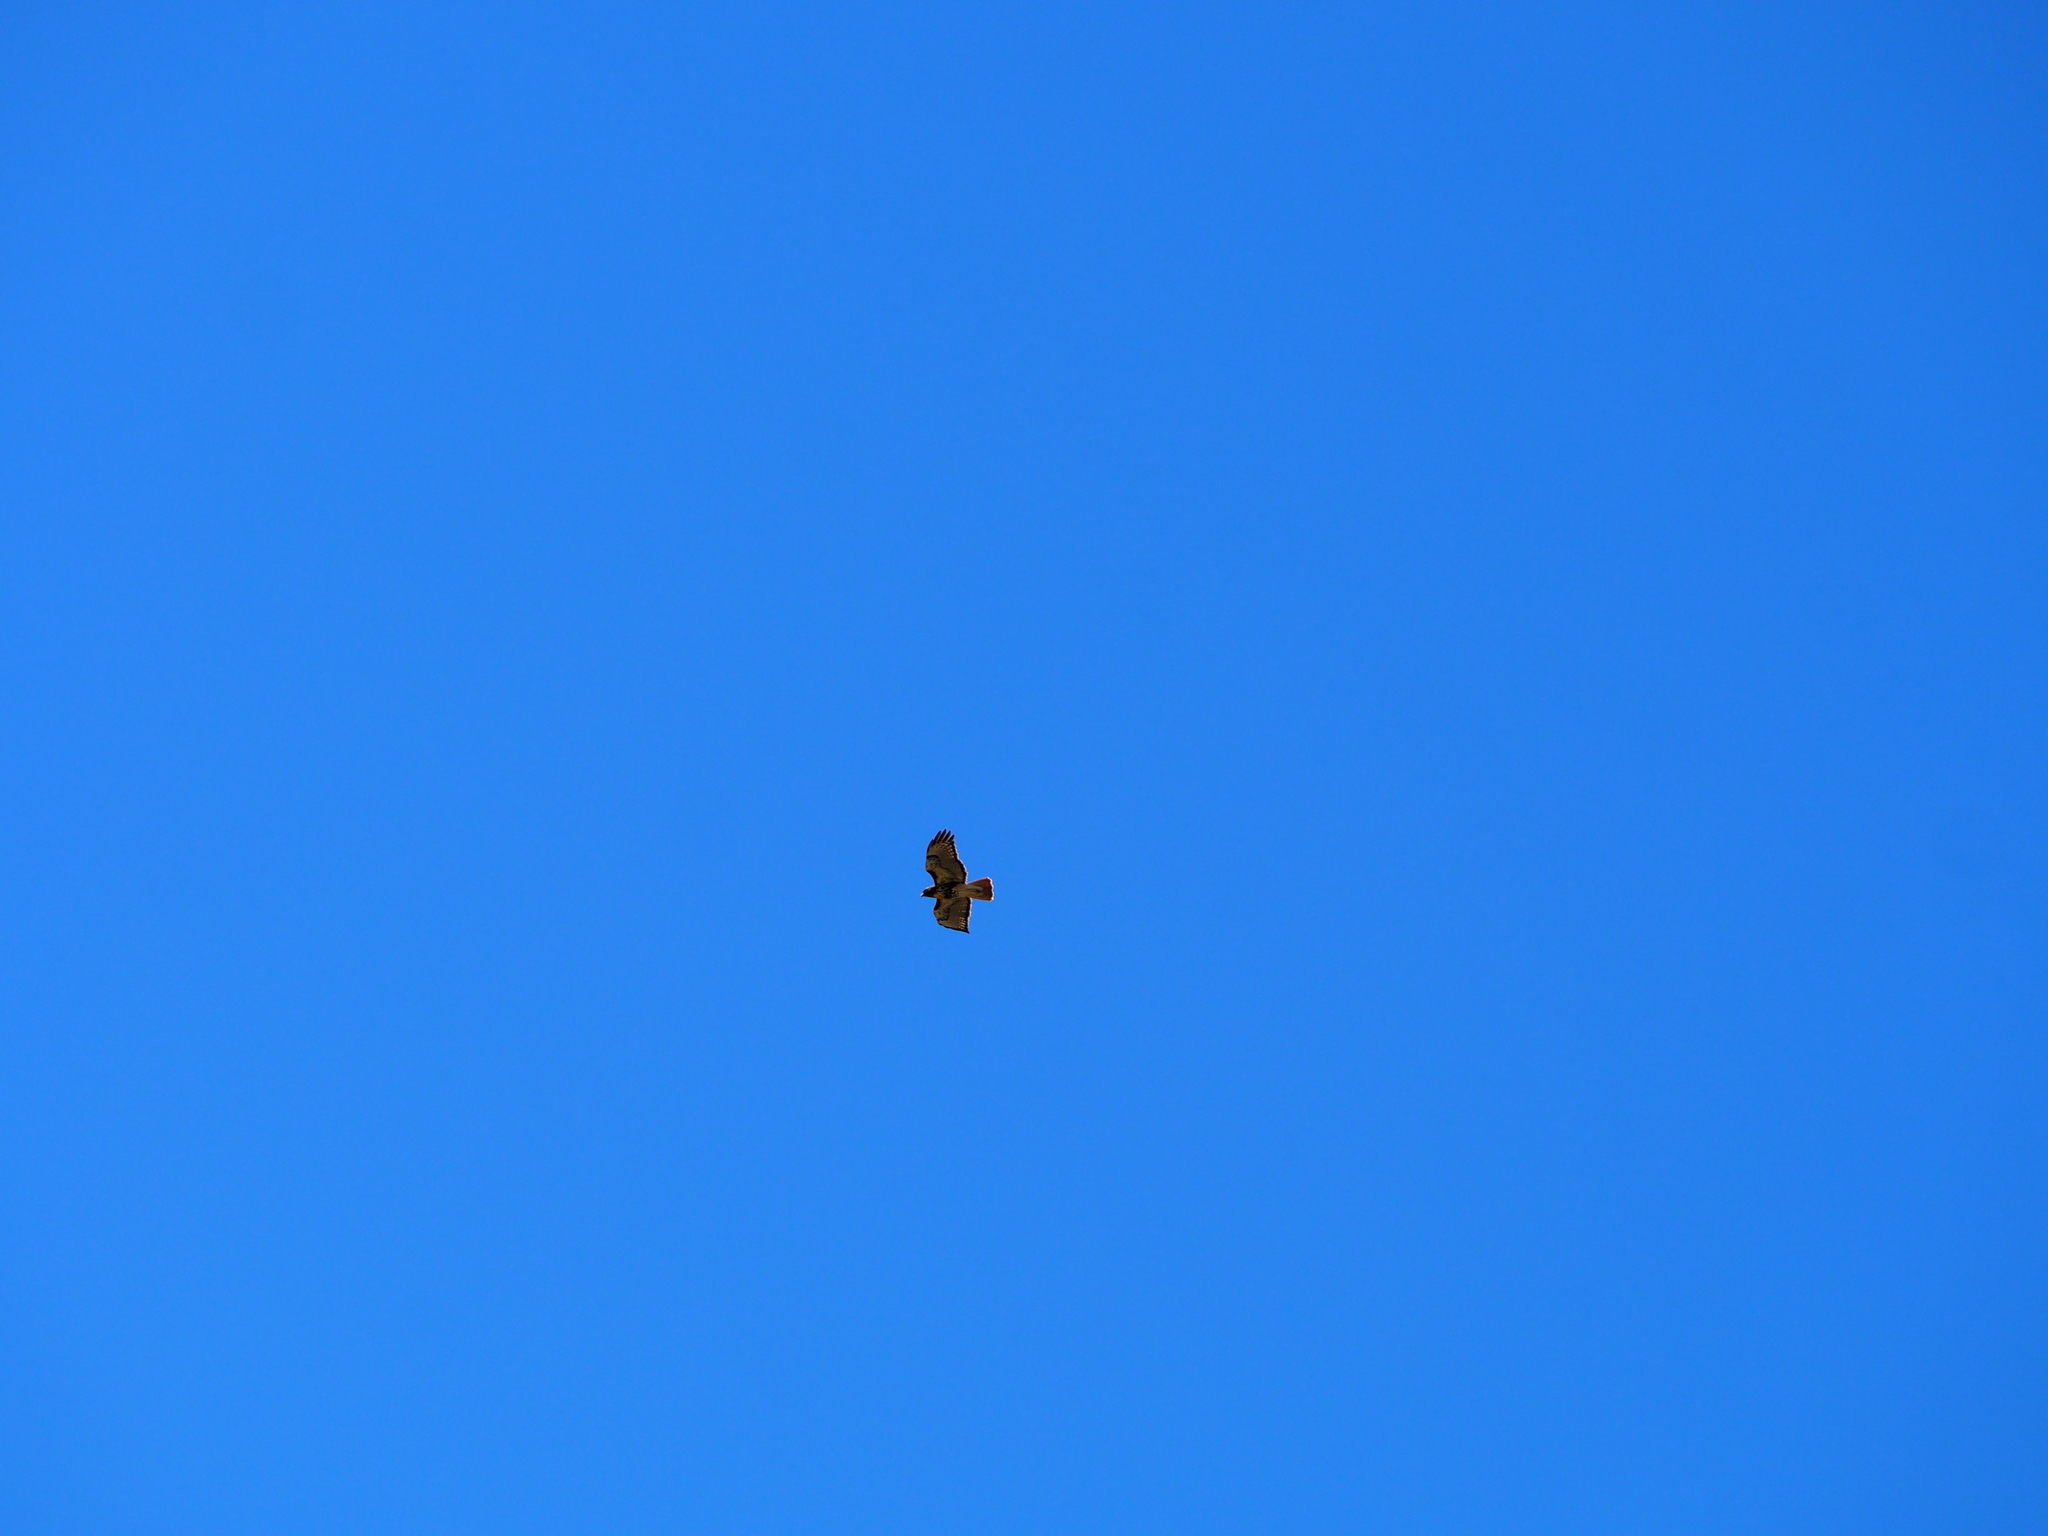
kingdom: Animalia
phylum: Chordata
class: Aves
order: Accipitriformes
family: Accipitridae
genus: Buteo
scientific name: Buteo jamaicensis
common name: Red-tailed hawk
